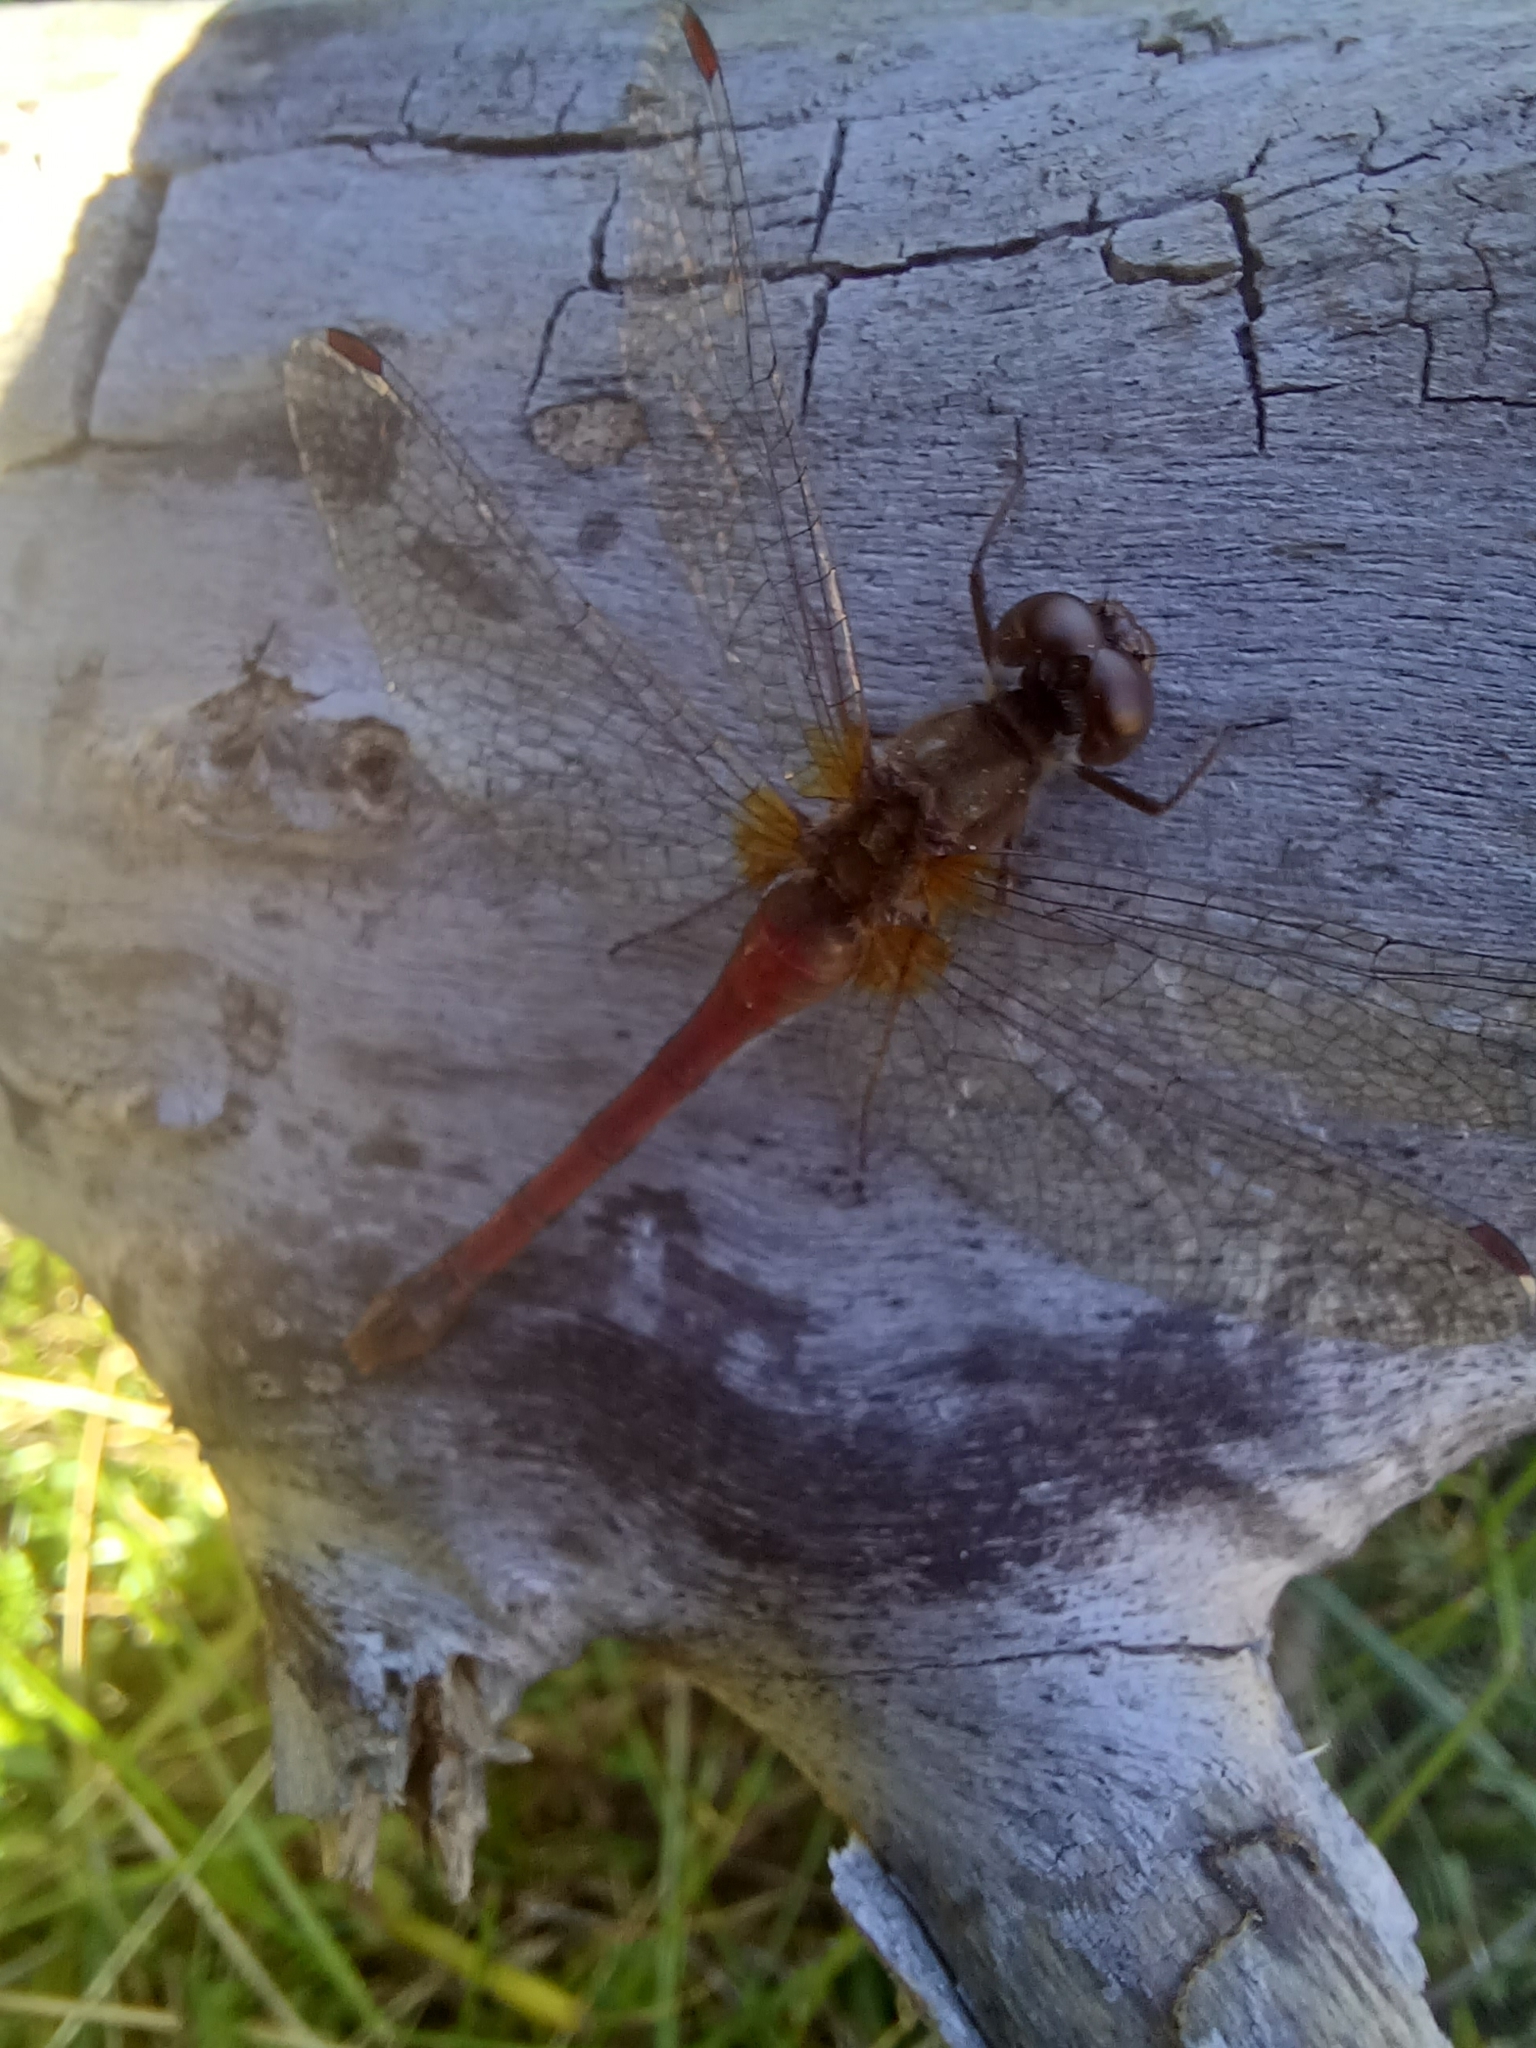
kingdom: Animalia
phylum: Arthropoda
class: Insecta
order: Odonata
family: Libellulidae
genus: Sympetrum
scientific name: Sympetrum vicinum
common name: Autumn meadowhawk
